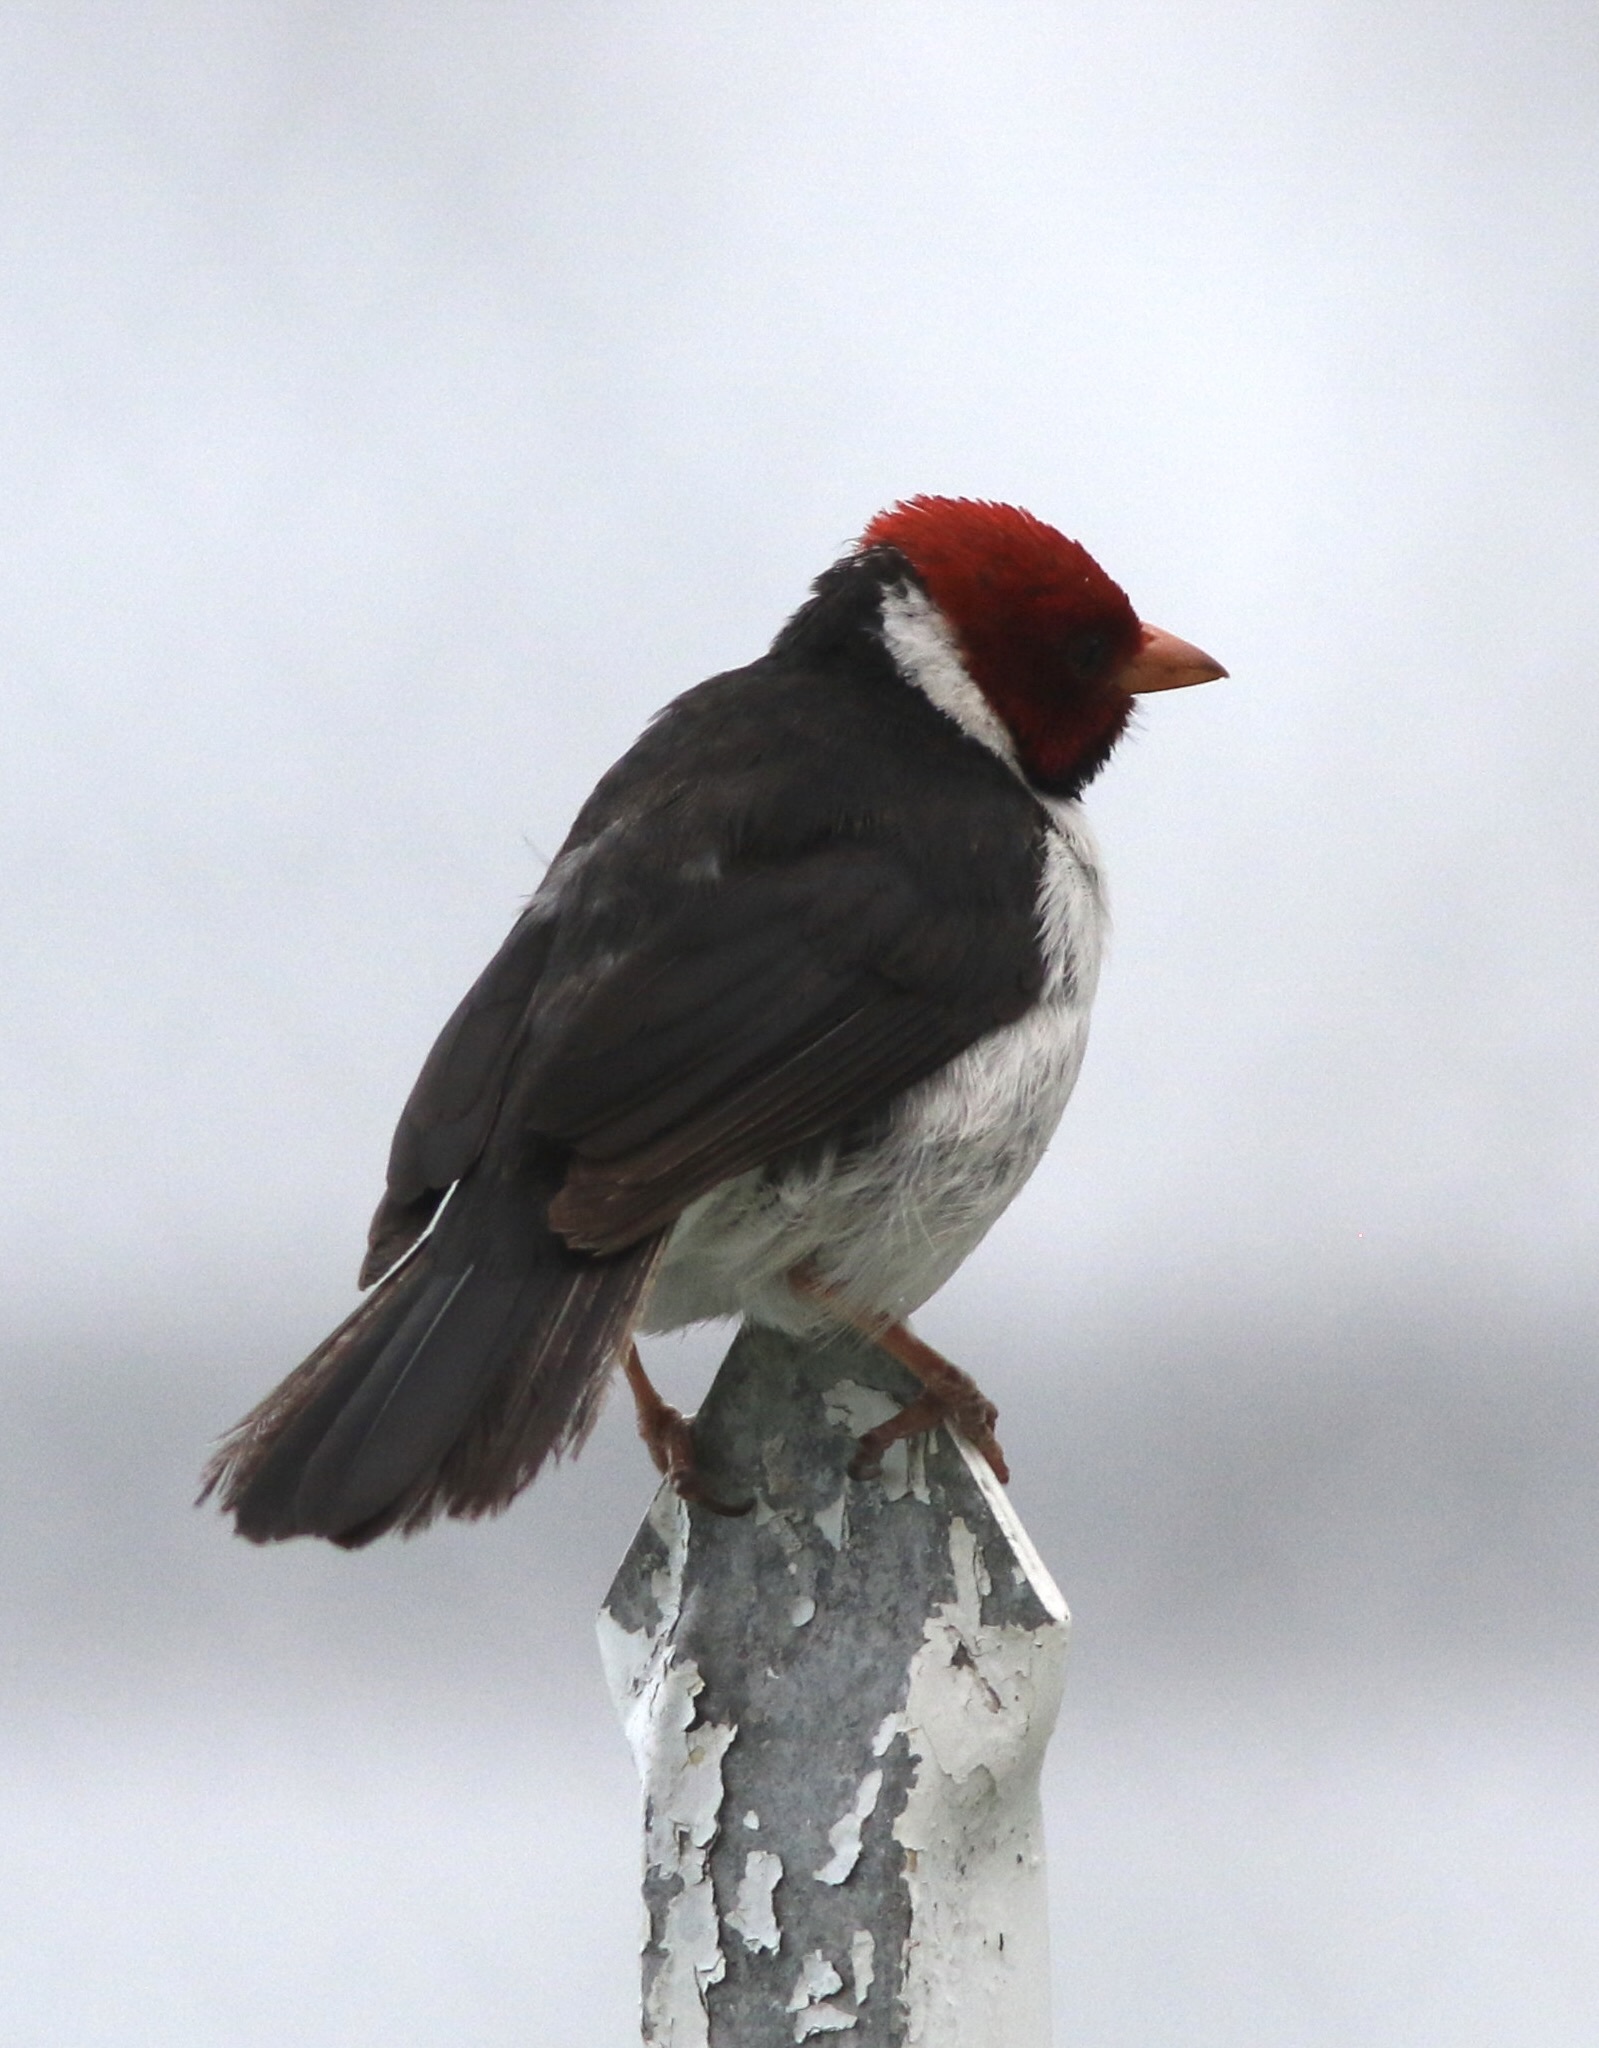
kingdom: Animalia
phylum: Chordata
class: Aves
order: Passeriformes
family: Thraupidae
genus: Paroaria
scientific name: Paroaria capitata
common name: Yellow-billed cardinal
